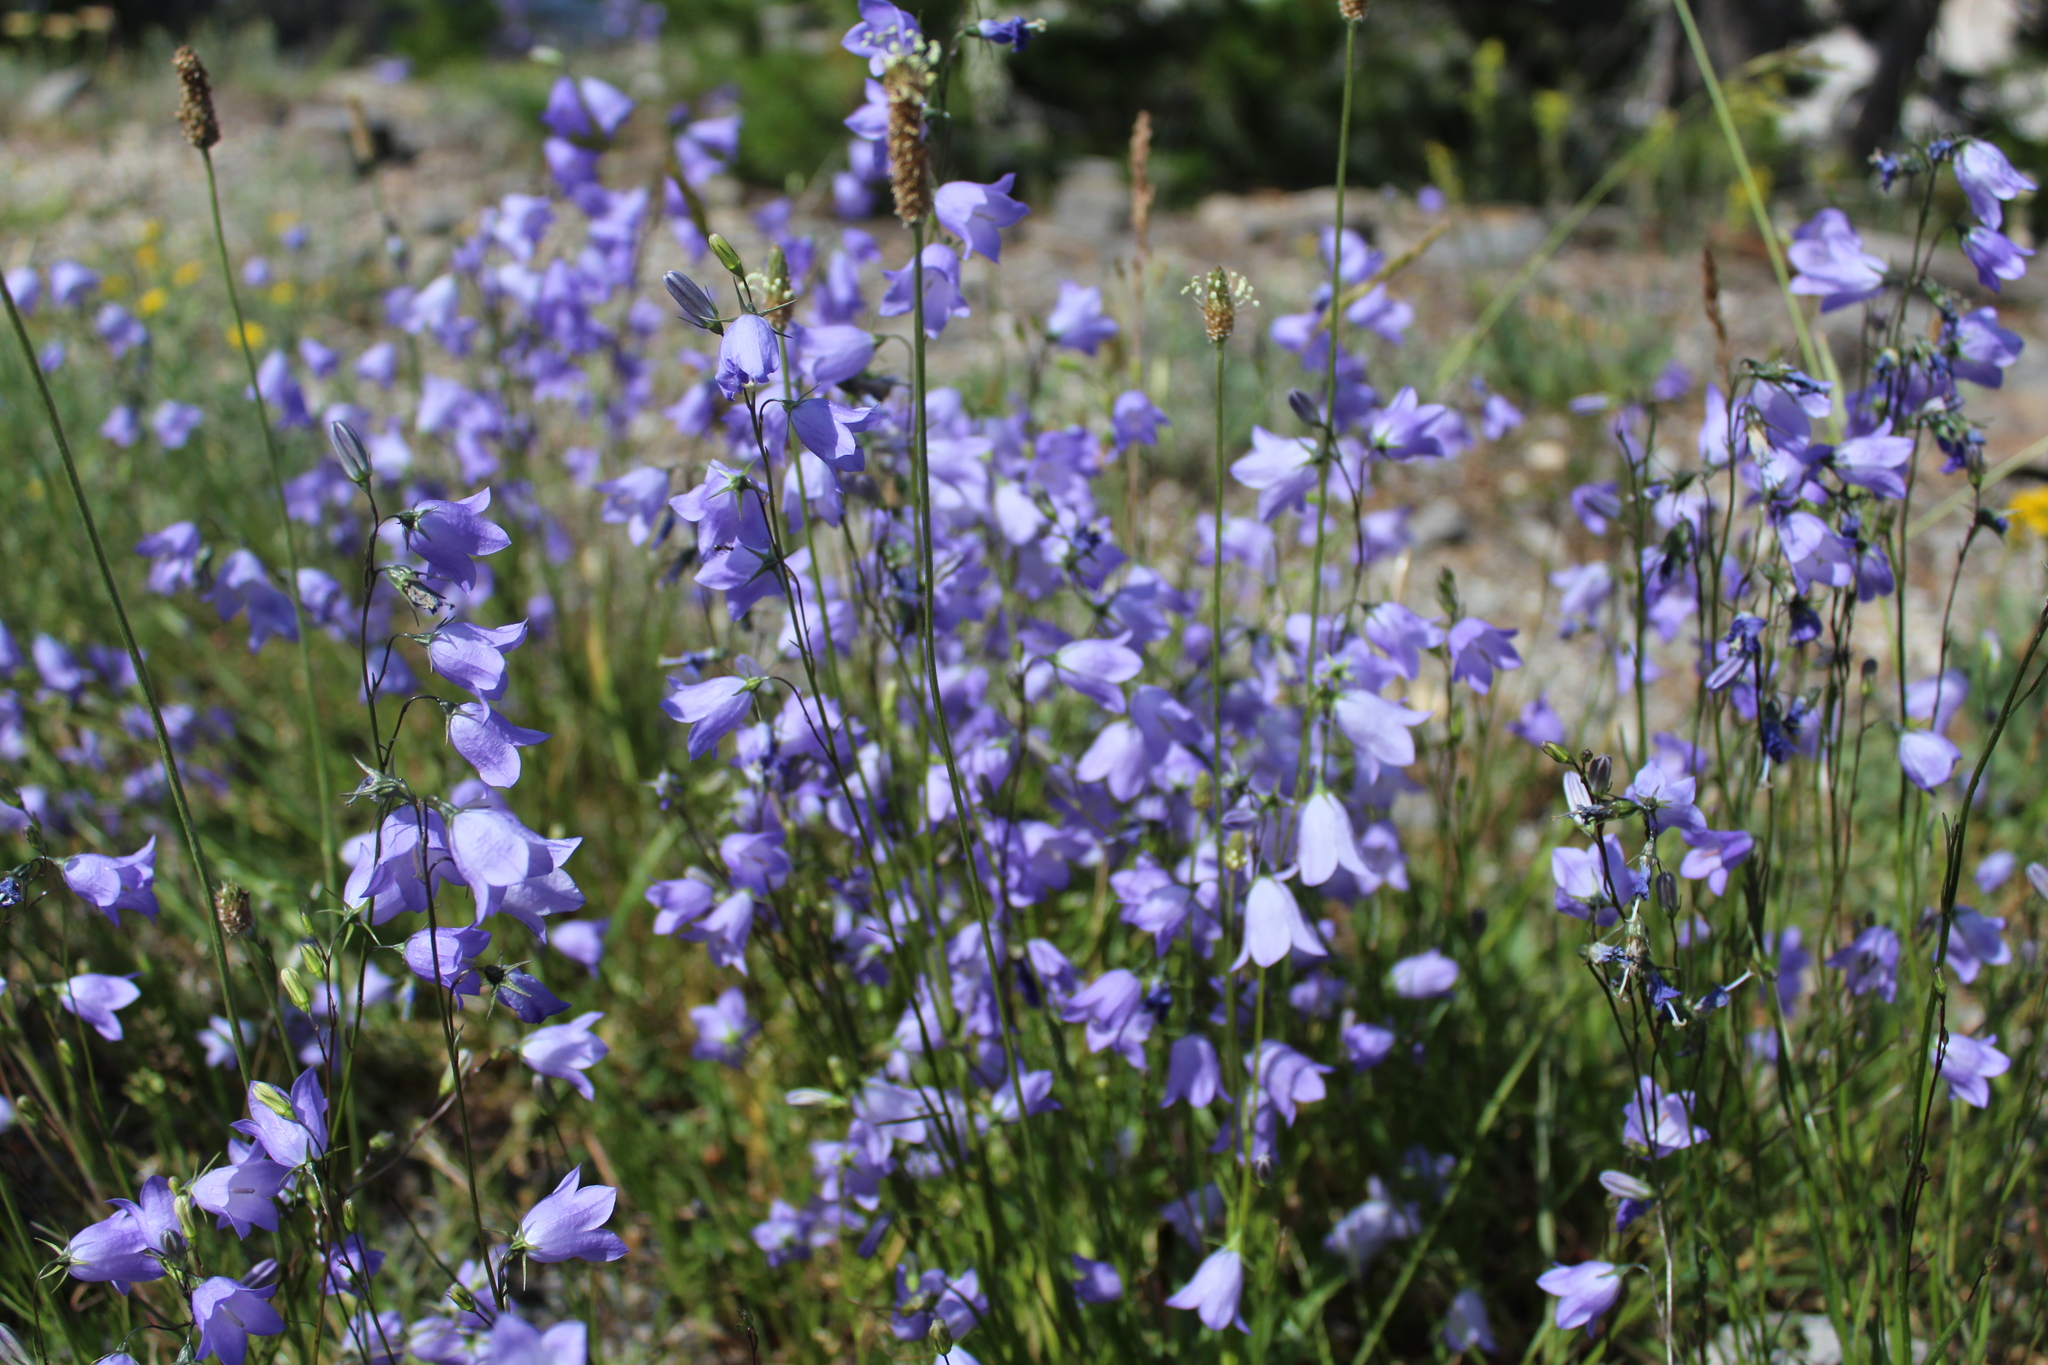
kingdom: Plantae
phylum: Tracheophyta
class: Magnoliopsida
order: Asterales
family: Campanulaceae
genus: Campanula
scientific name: Campanula petiolata
